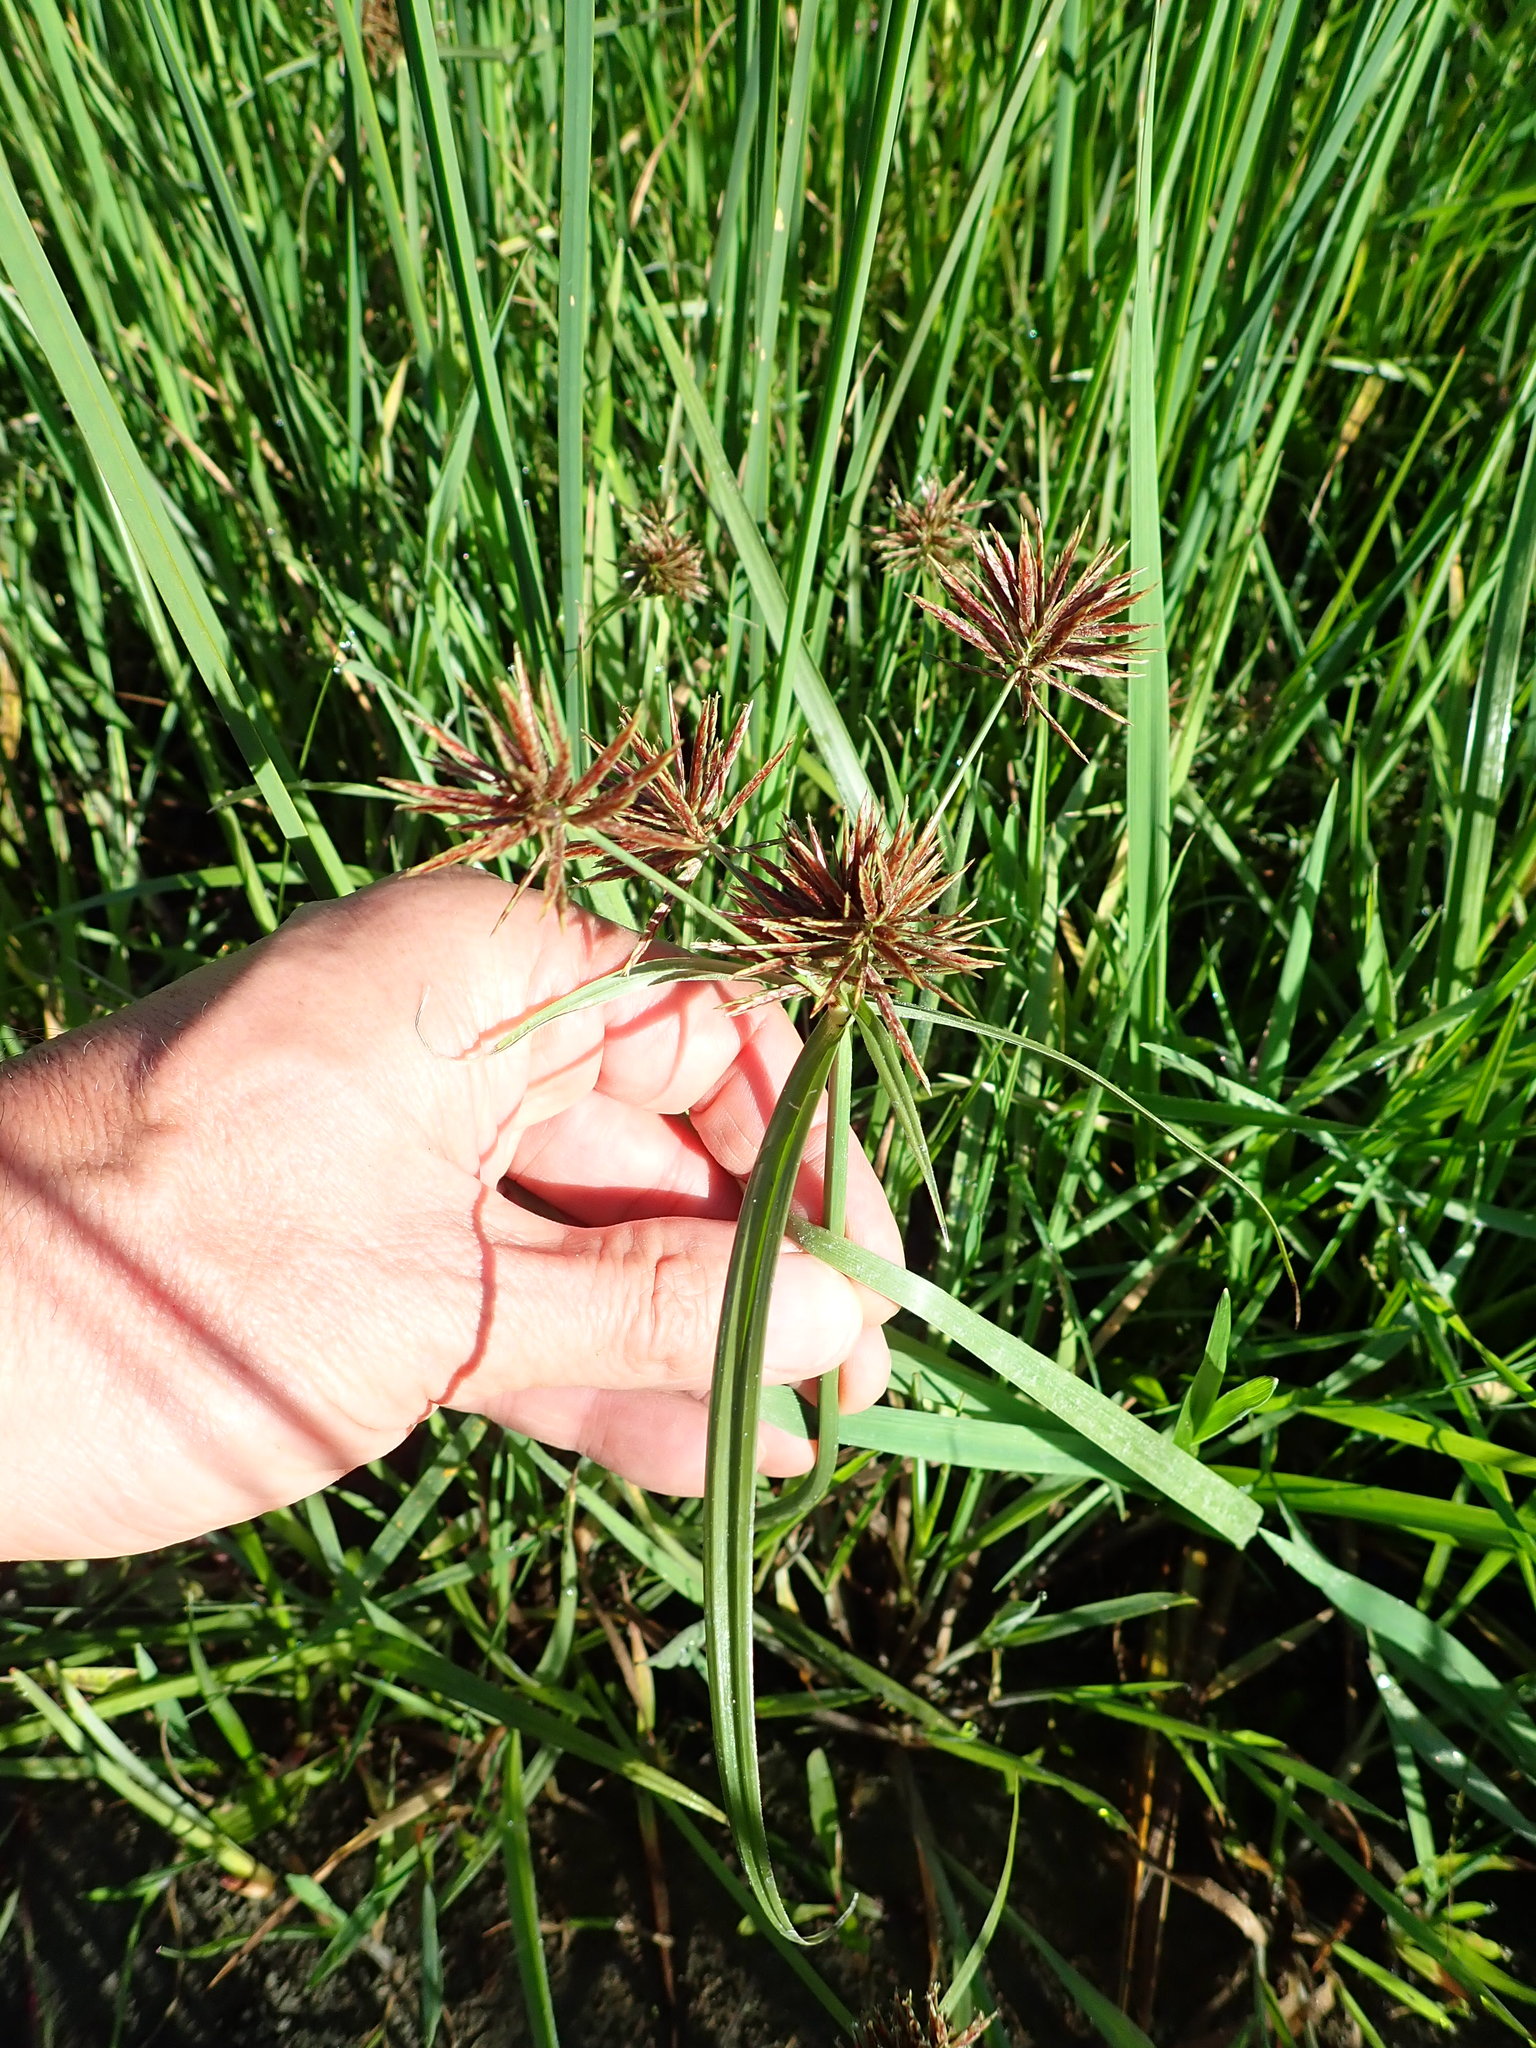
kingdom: Plantae
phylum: Tracheophyta
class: Liliopsida
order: Poales
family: Cyperaceae
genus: Cyperus
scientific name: Cyperus congestus
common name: Dense flat sedge
